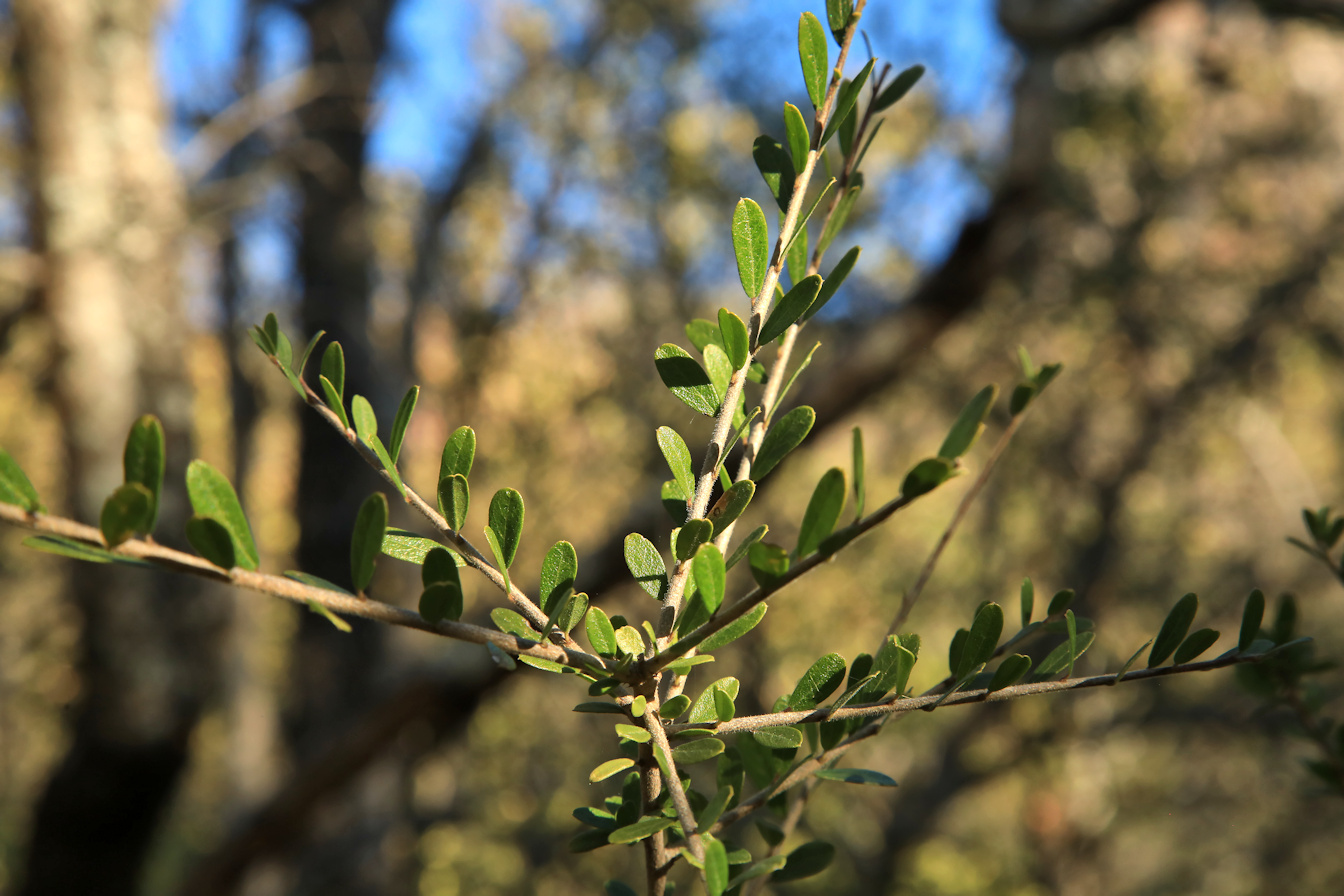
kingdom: Plantae
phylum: Tracheophyta
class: Magnoliopsida
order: Brassicales
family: Capparaceae
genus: Maerua
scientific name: Maerua parvifolia
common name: Dwarf bush-cherry
